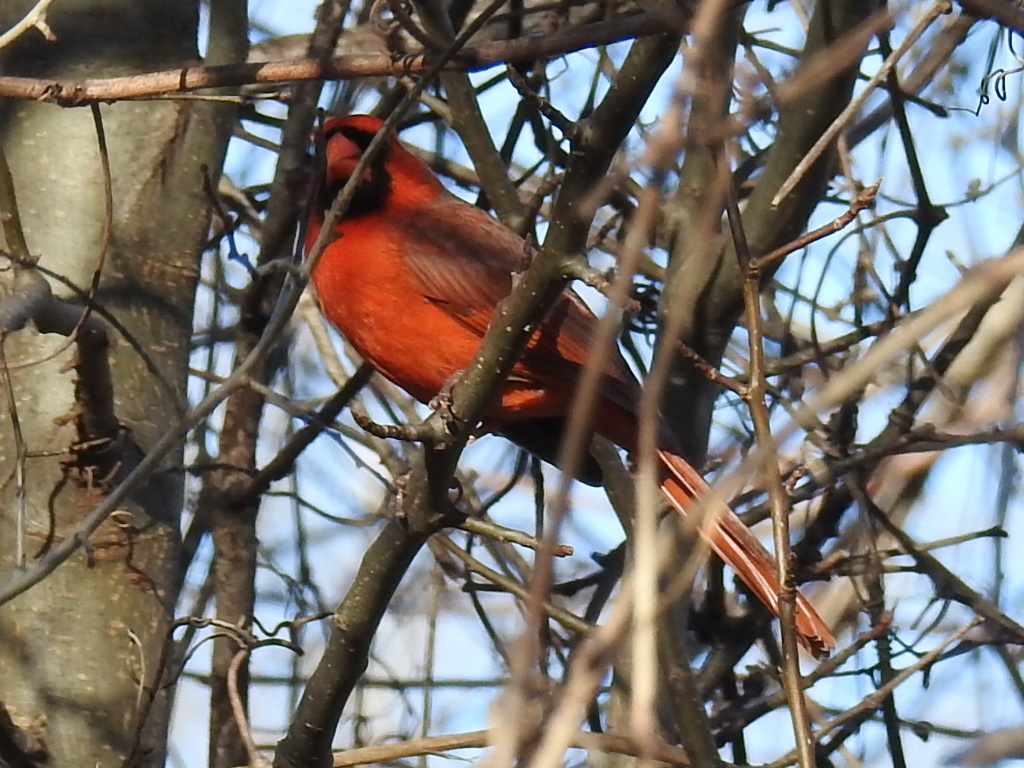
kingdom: Animalia
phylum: Chordata
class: Aves
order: Passeriformes
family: Cardinalidae
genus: Cardinalis
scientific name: Cardinalis cardinalis
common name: Northern cardinal
